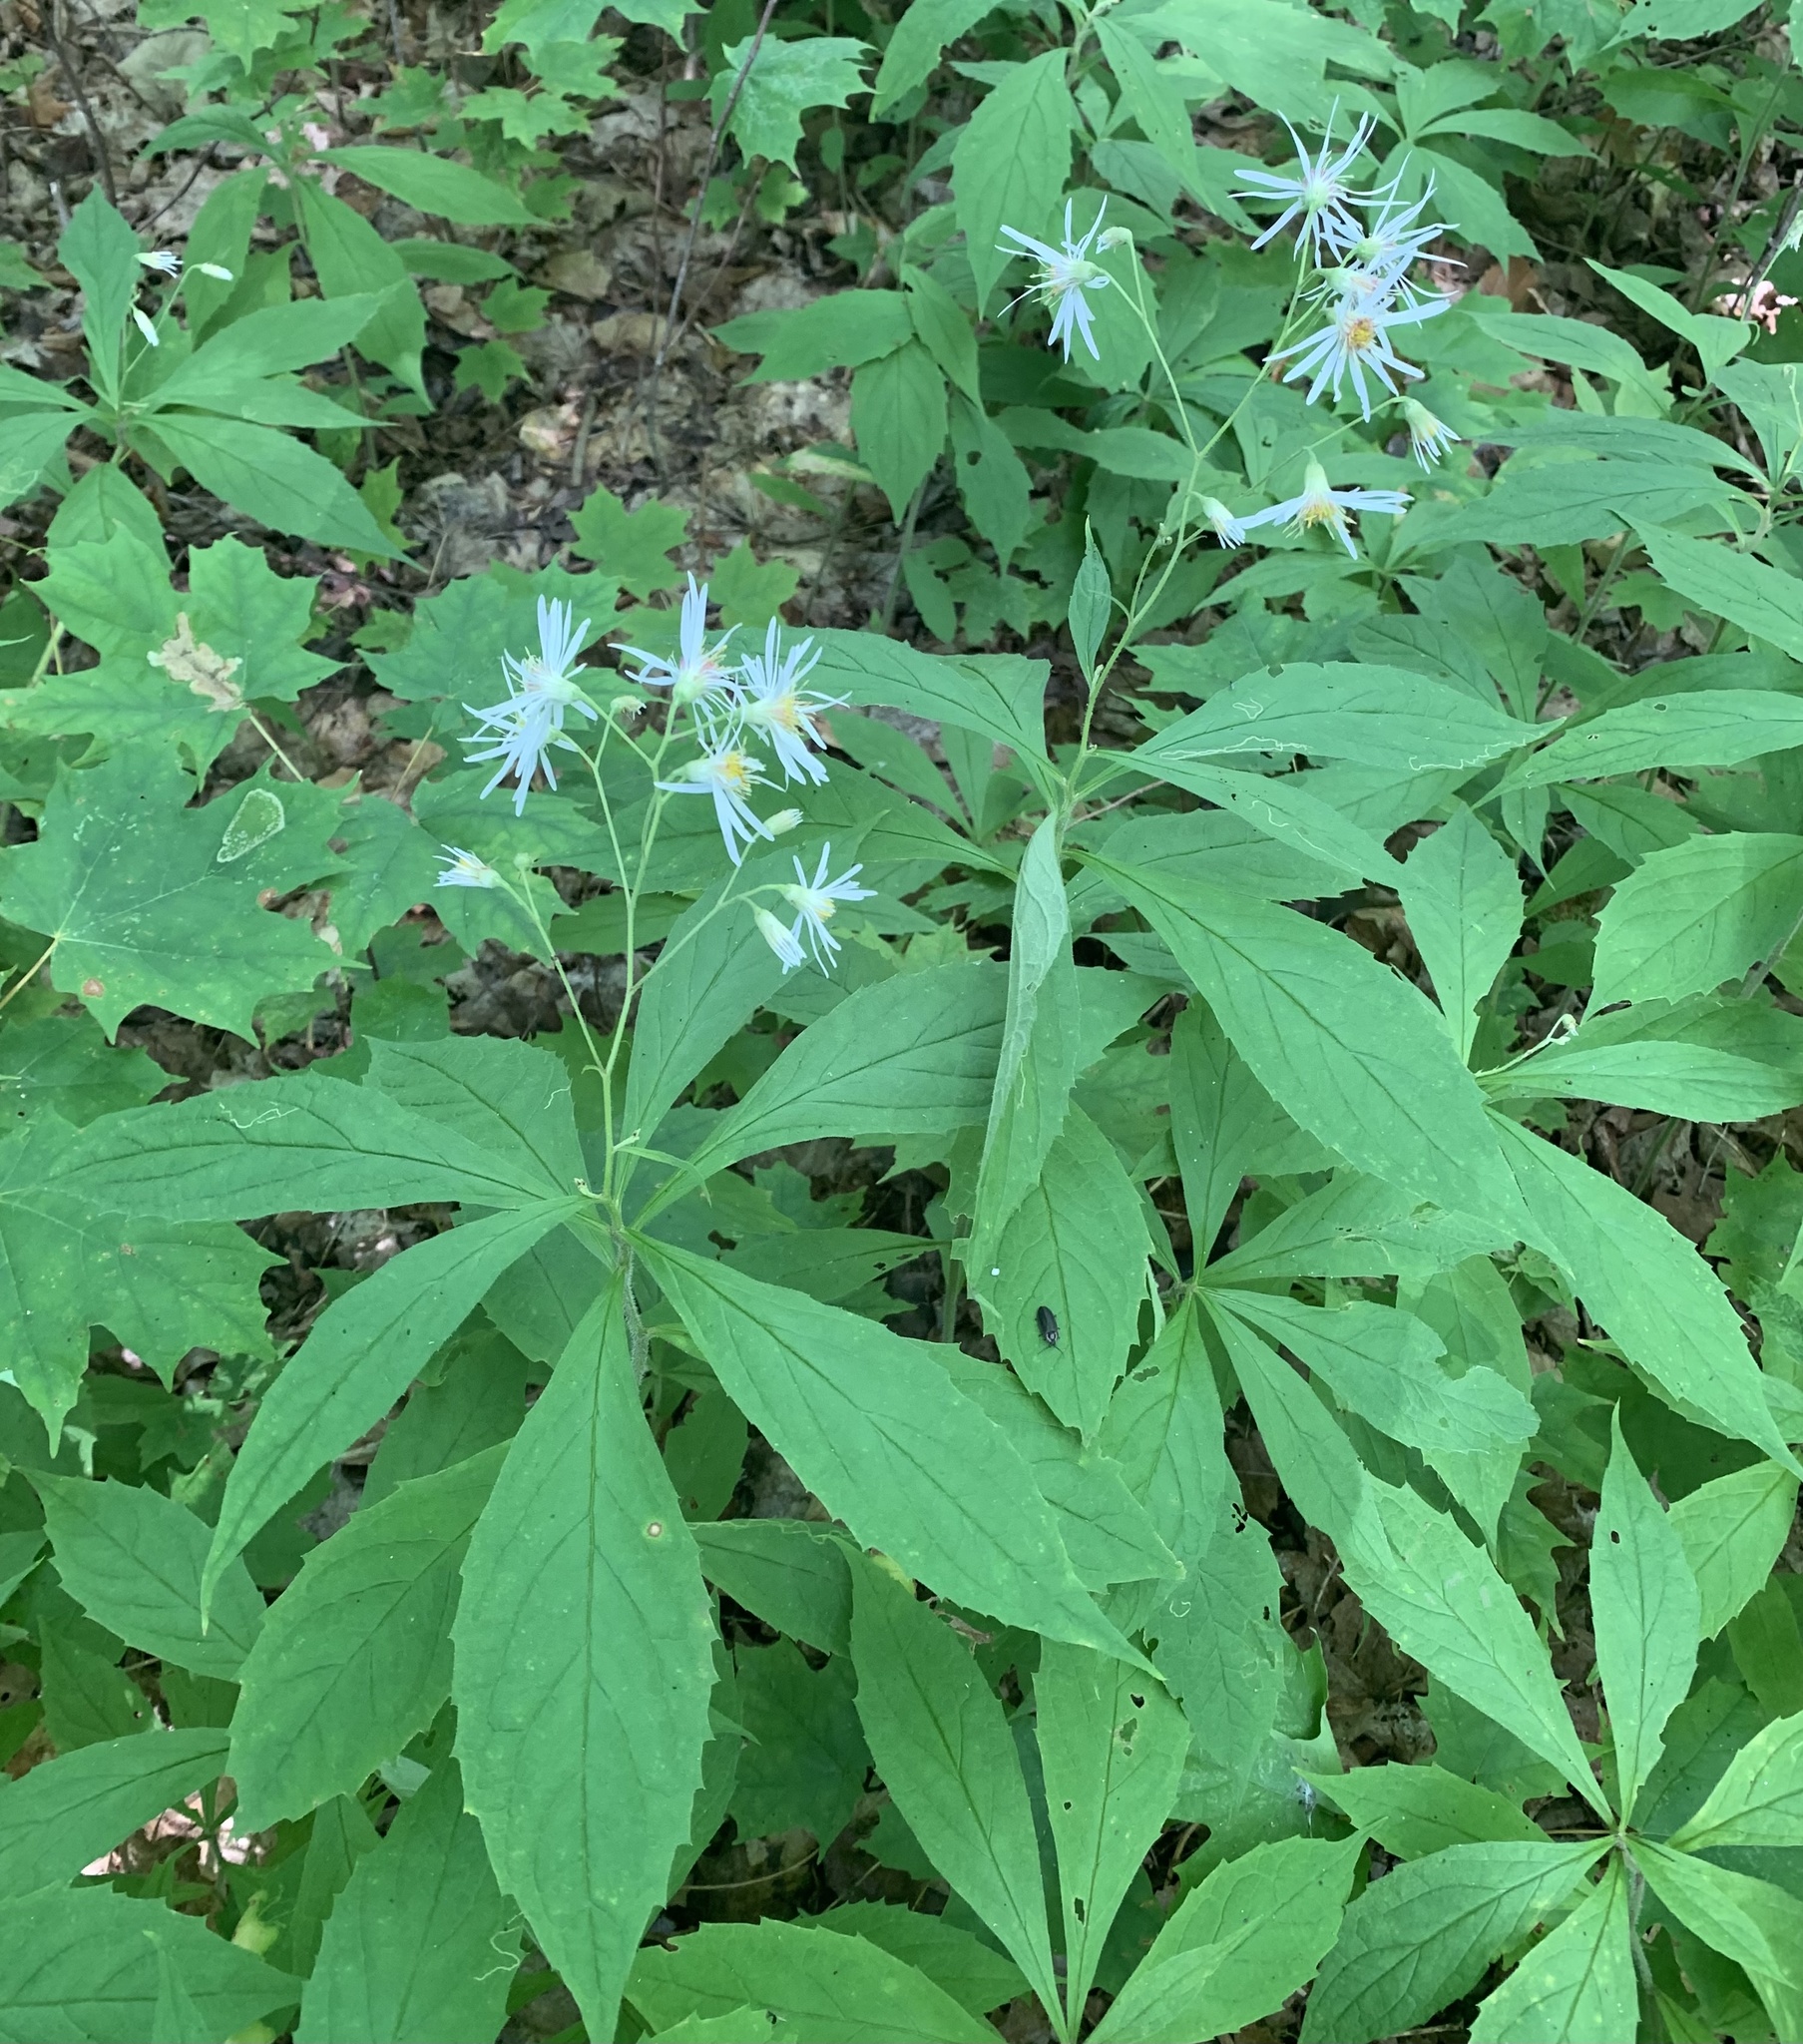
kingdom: Plantae
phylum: Tracheophyta
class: Magnoliopsida
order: Asterales
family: Asteraceae
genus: Oclemena
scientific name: Oclemena acuminata
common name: Mountain aster
